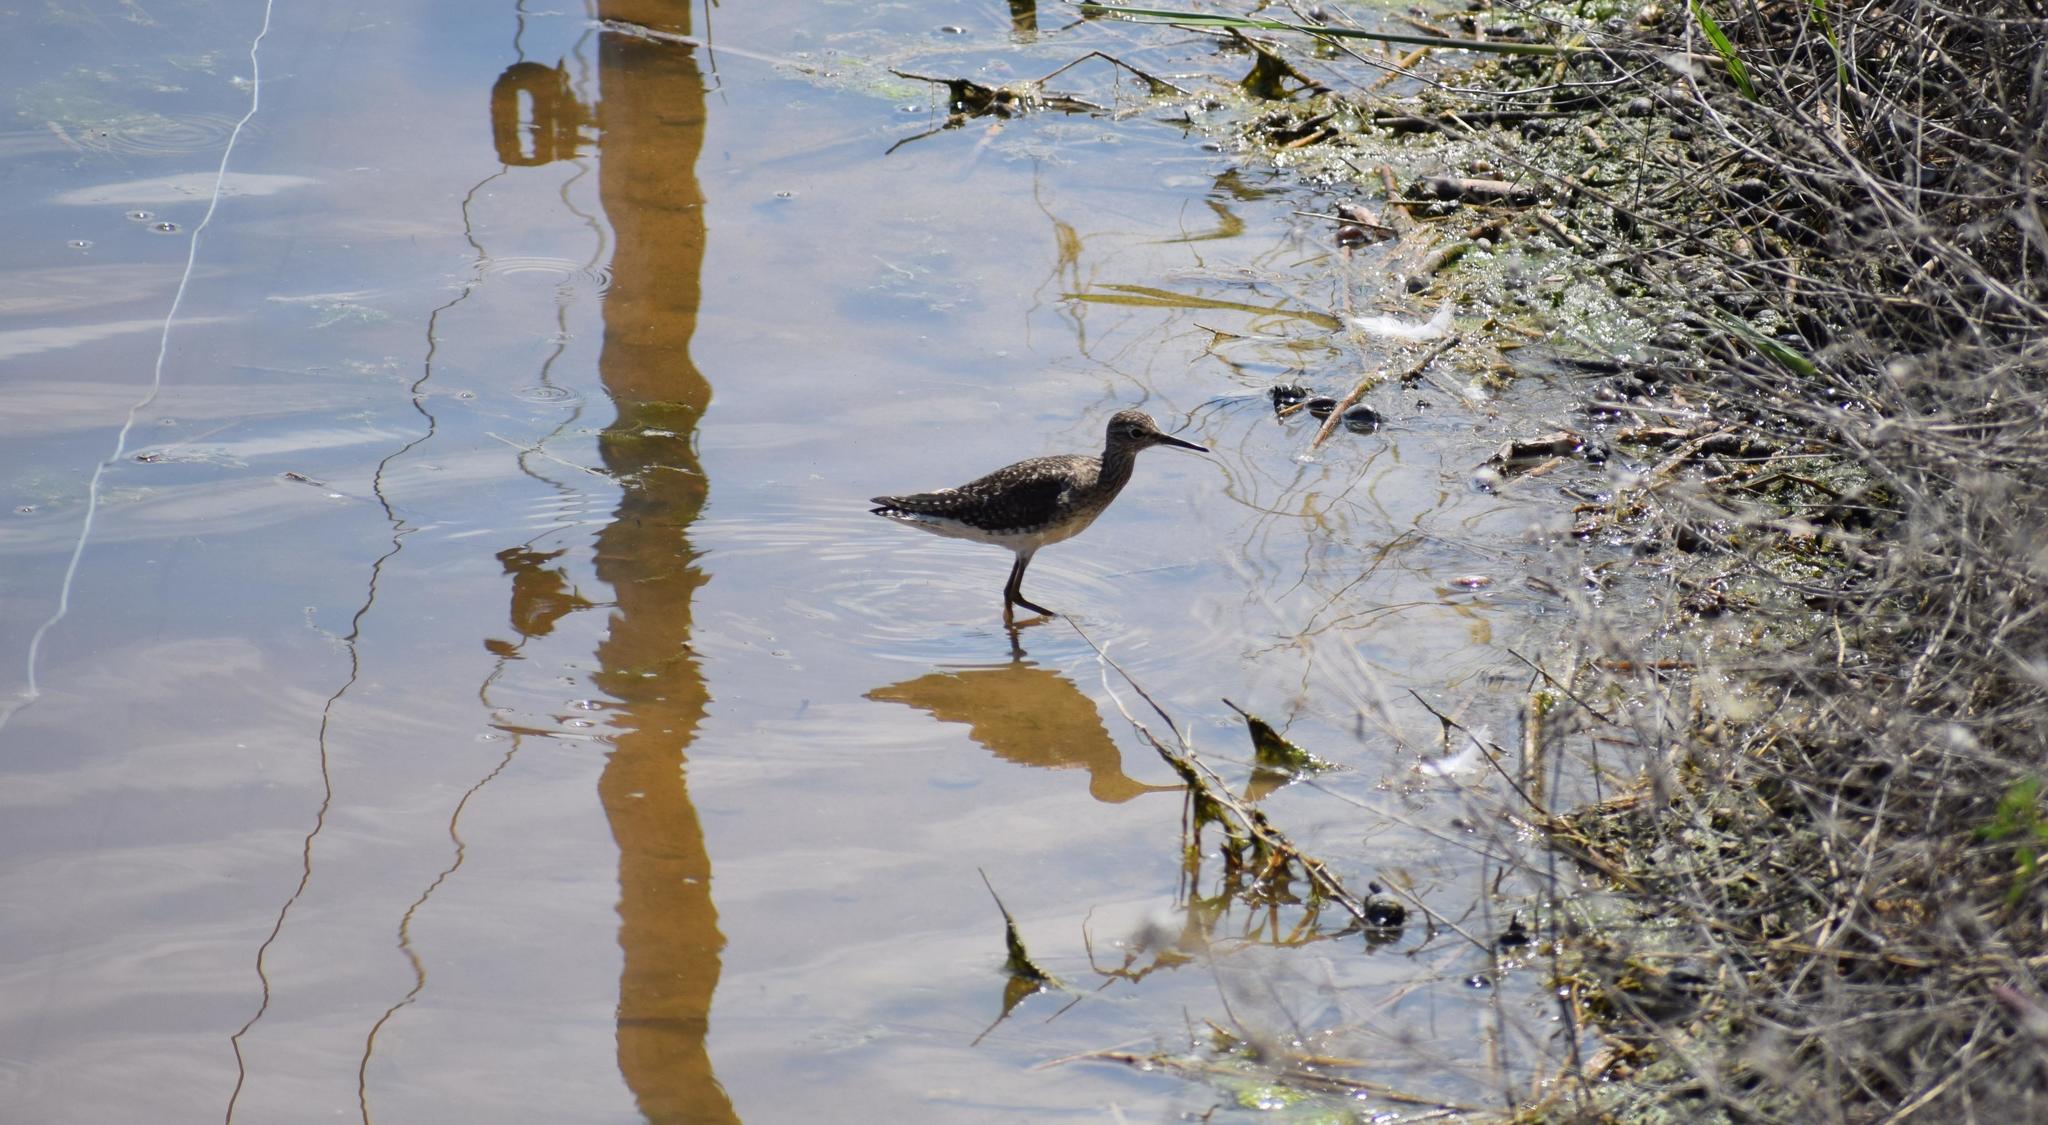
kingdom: Animalia
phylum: Chordata
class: Aves
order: Charadriiformes
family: Scolopacidae
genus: Tringa
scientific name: Tringa glareola
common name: Wood sandpiper
